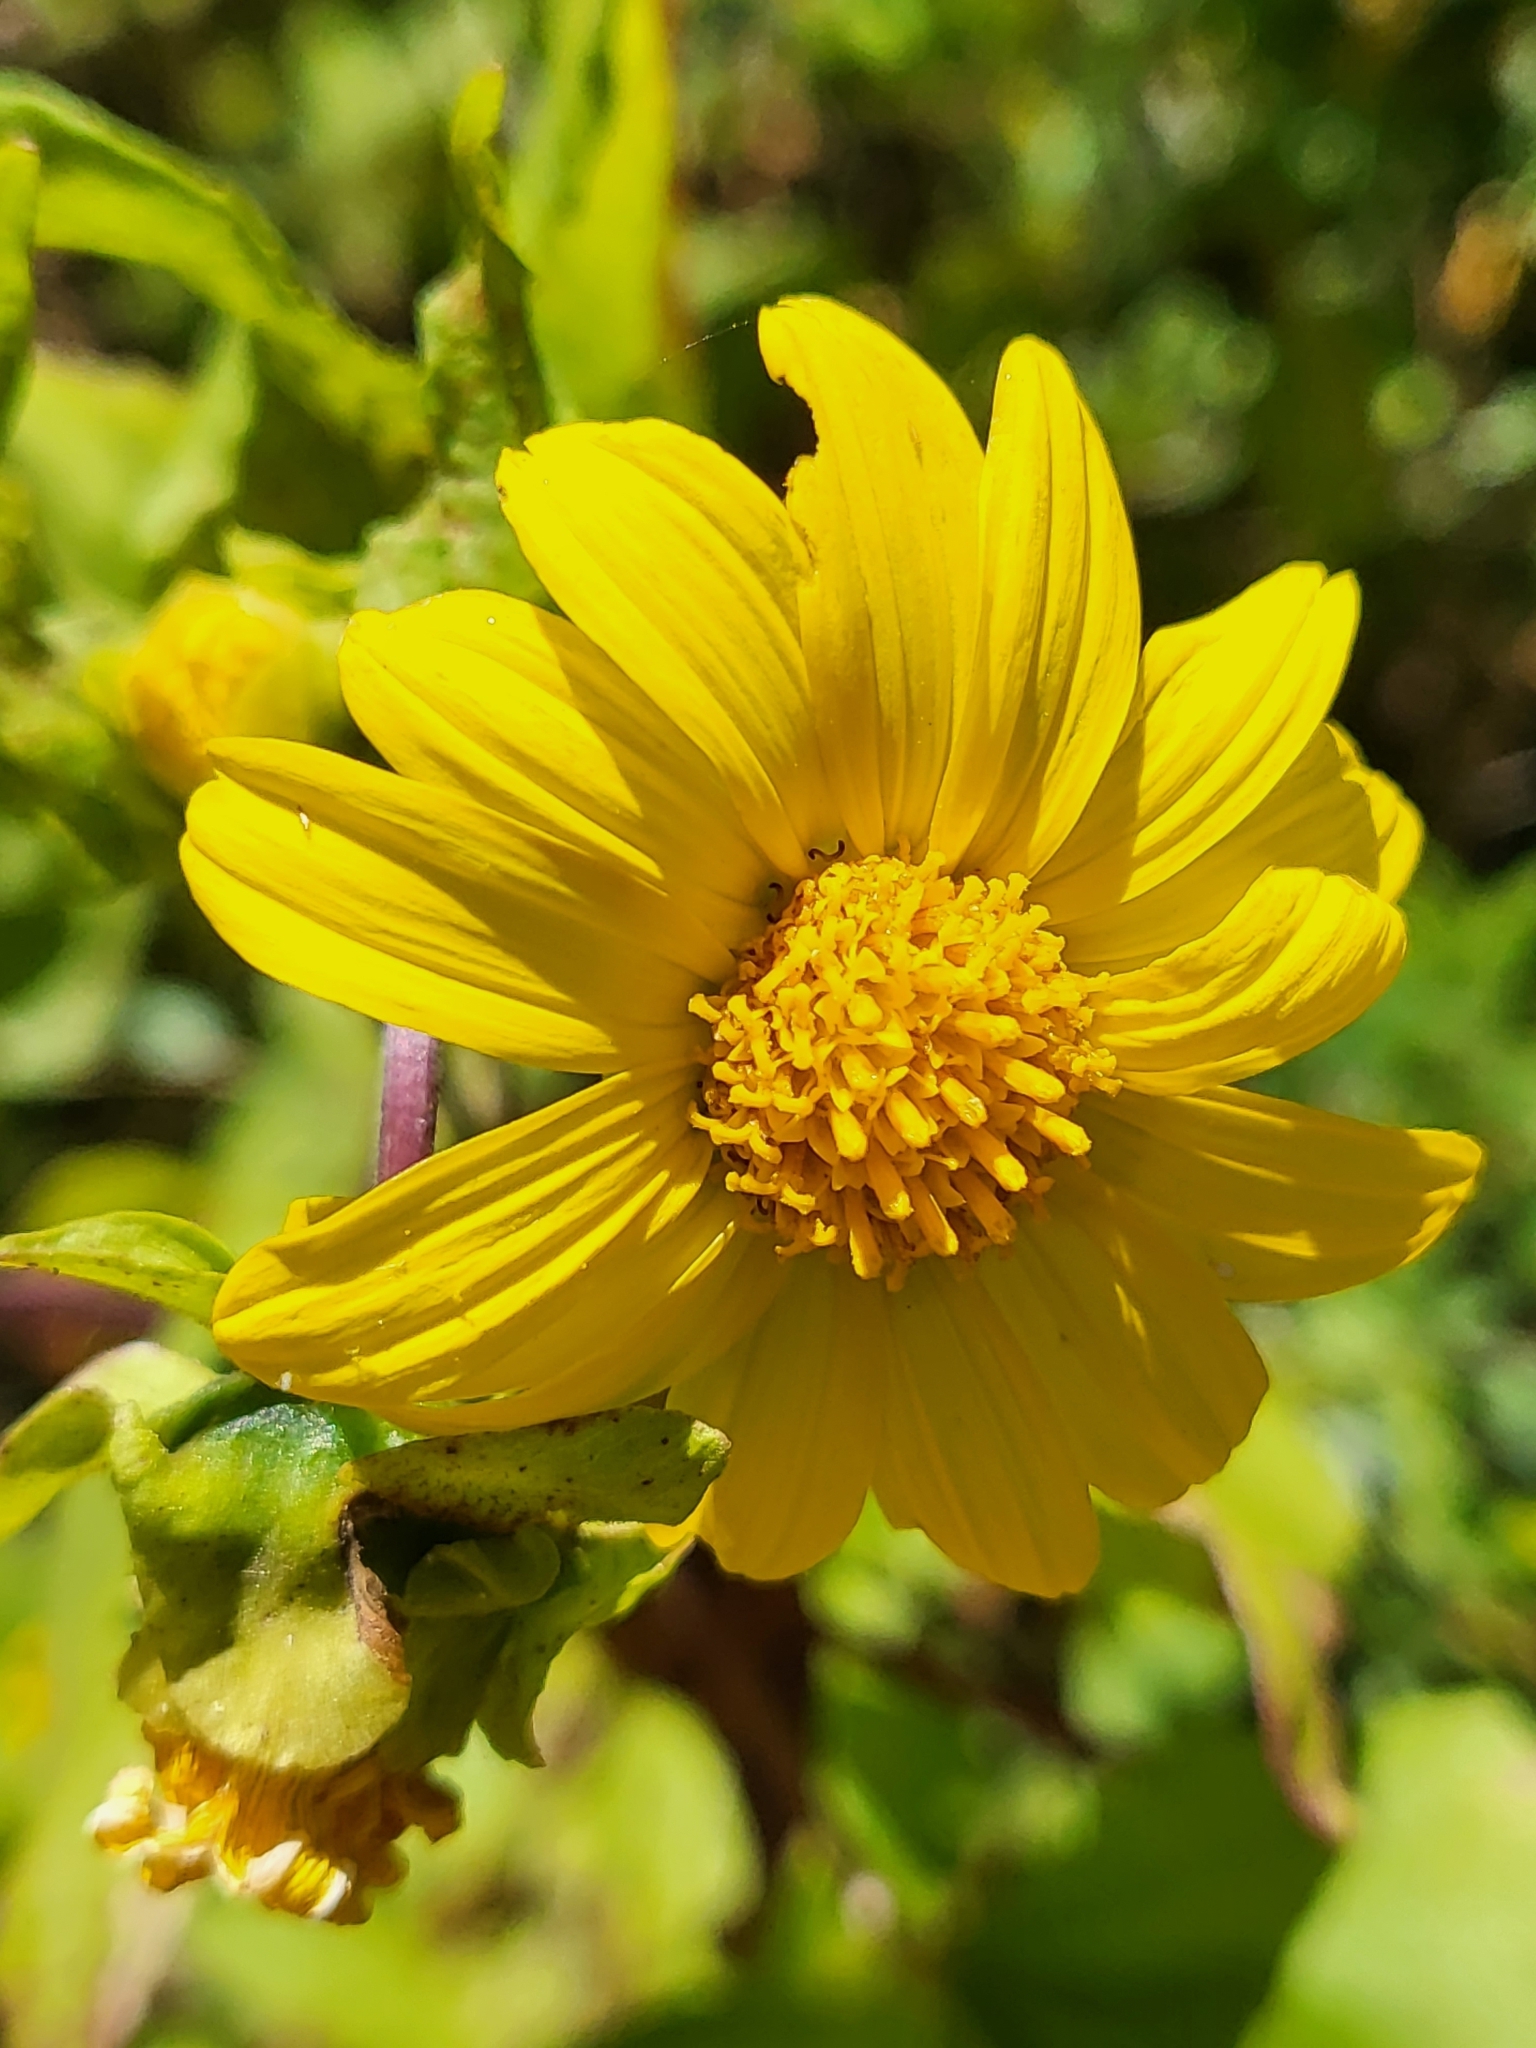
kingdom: Plantae
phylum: Tracheophyta
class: Magnoliopsida
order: Asterales
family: Asteraceae
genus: Venegasia
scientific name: Venegasia carpesioides
